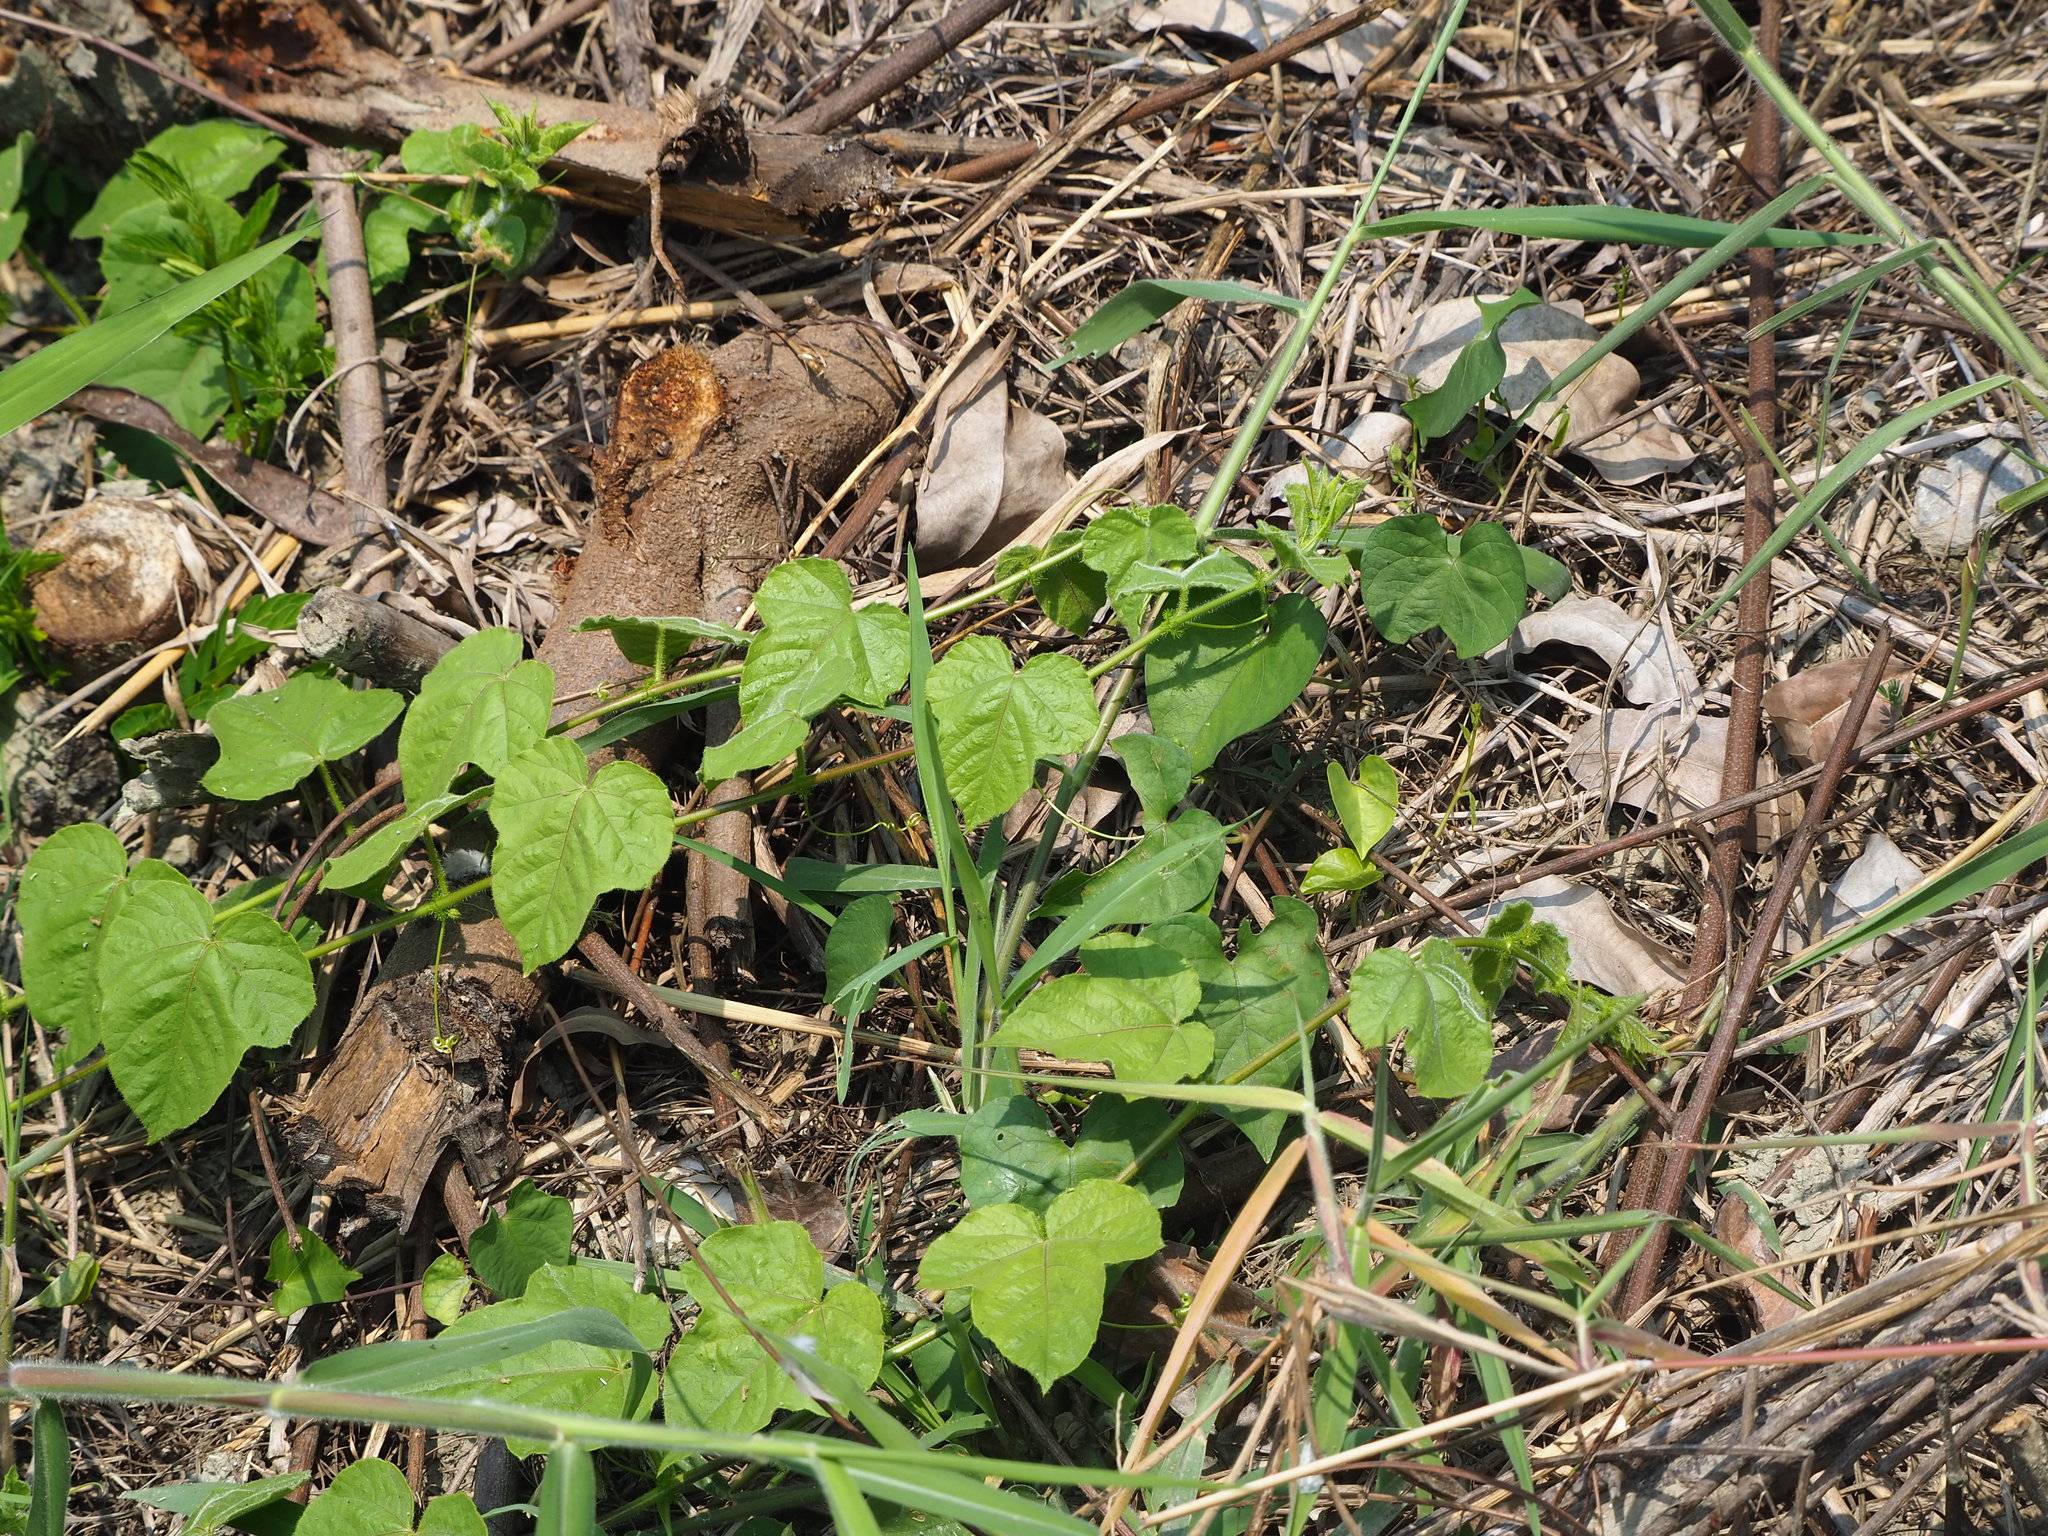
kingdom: Plantae
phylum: Tracheophyta
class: Magnoliopsida
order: Malpighiales
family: Passifloraceae
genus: Passiflora
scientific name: Passiflora vesicaria
